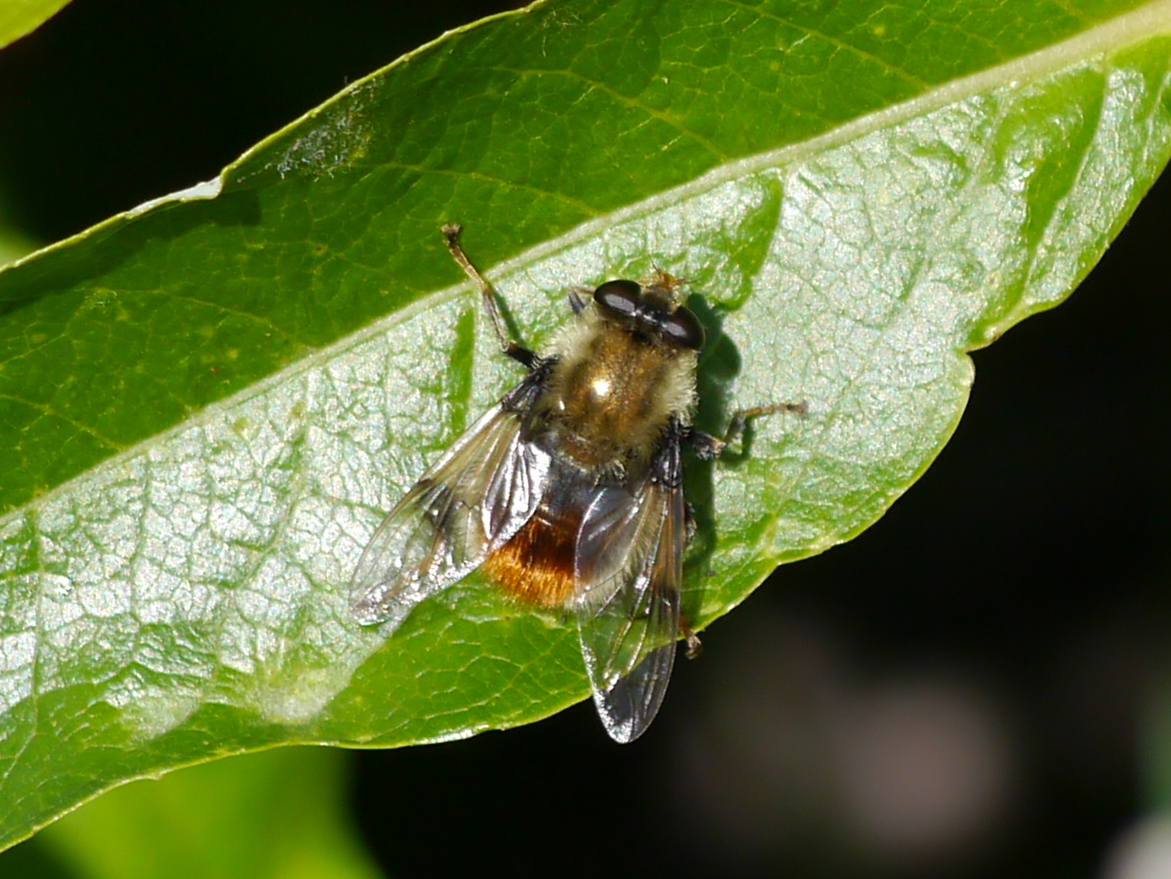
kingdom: Animalia
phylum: Arthropoda
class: Insecta
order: Diptera
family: Syrphidae
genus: Sericomyia
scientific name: Sericomyia flagrans
